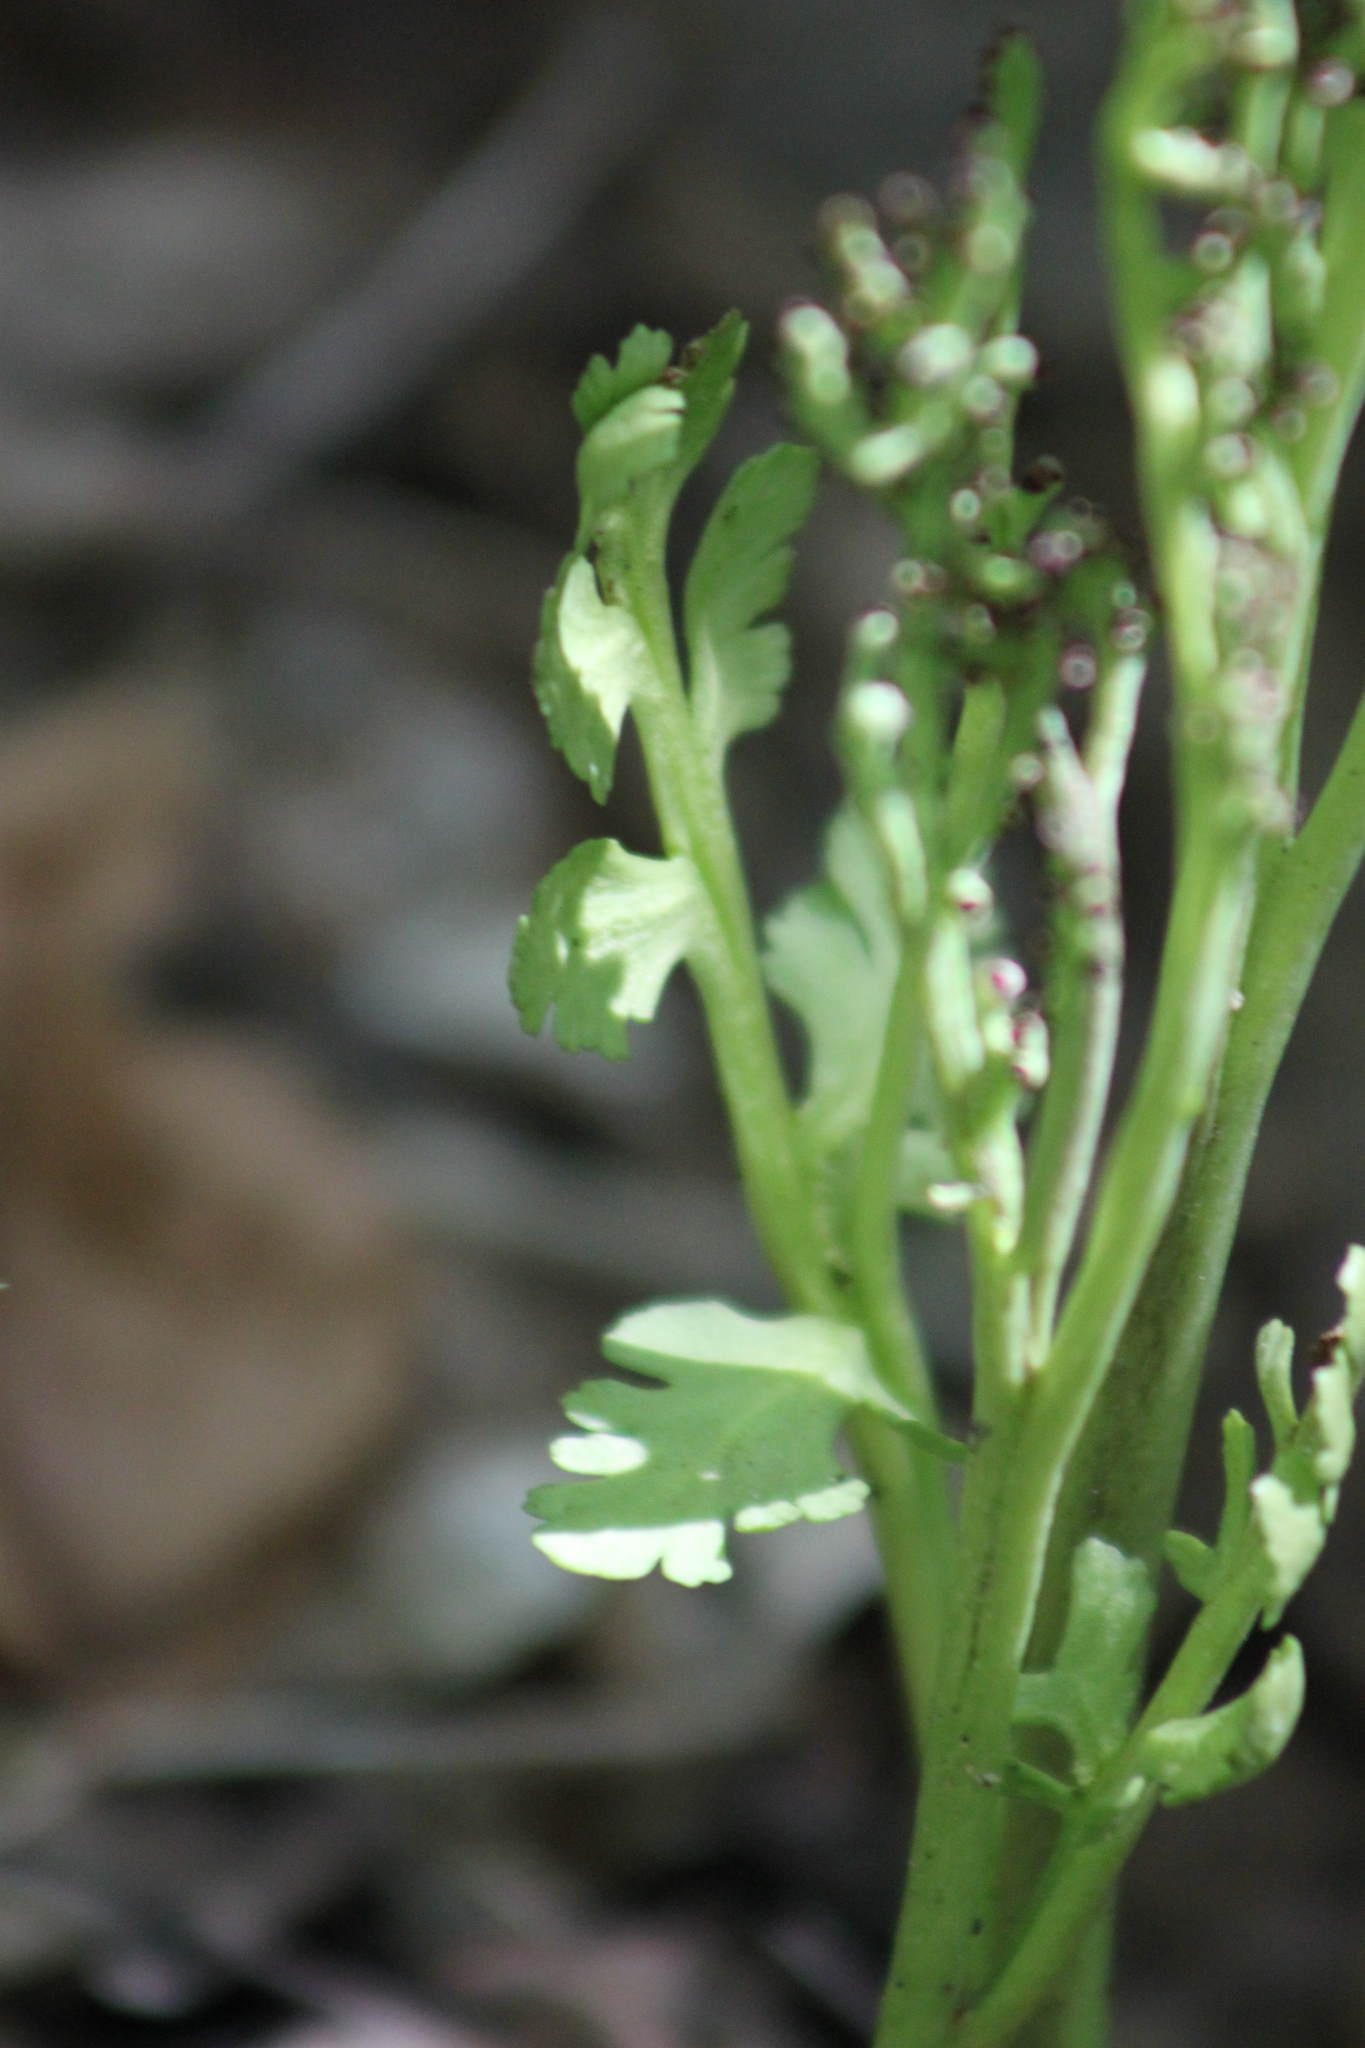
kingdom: Plantae
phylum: Tracheophyta
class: Polypodiopsida
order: Ophioglossales
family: Ophioglossaceae
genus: Botrychium
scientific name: Botrychium matricariifolium
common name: Branched moonwort
